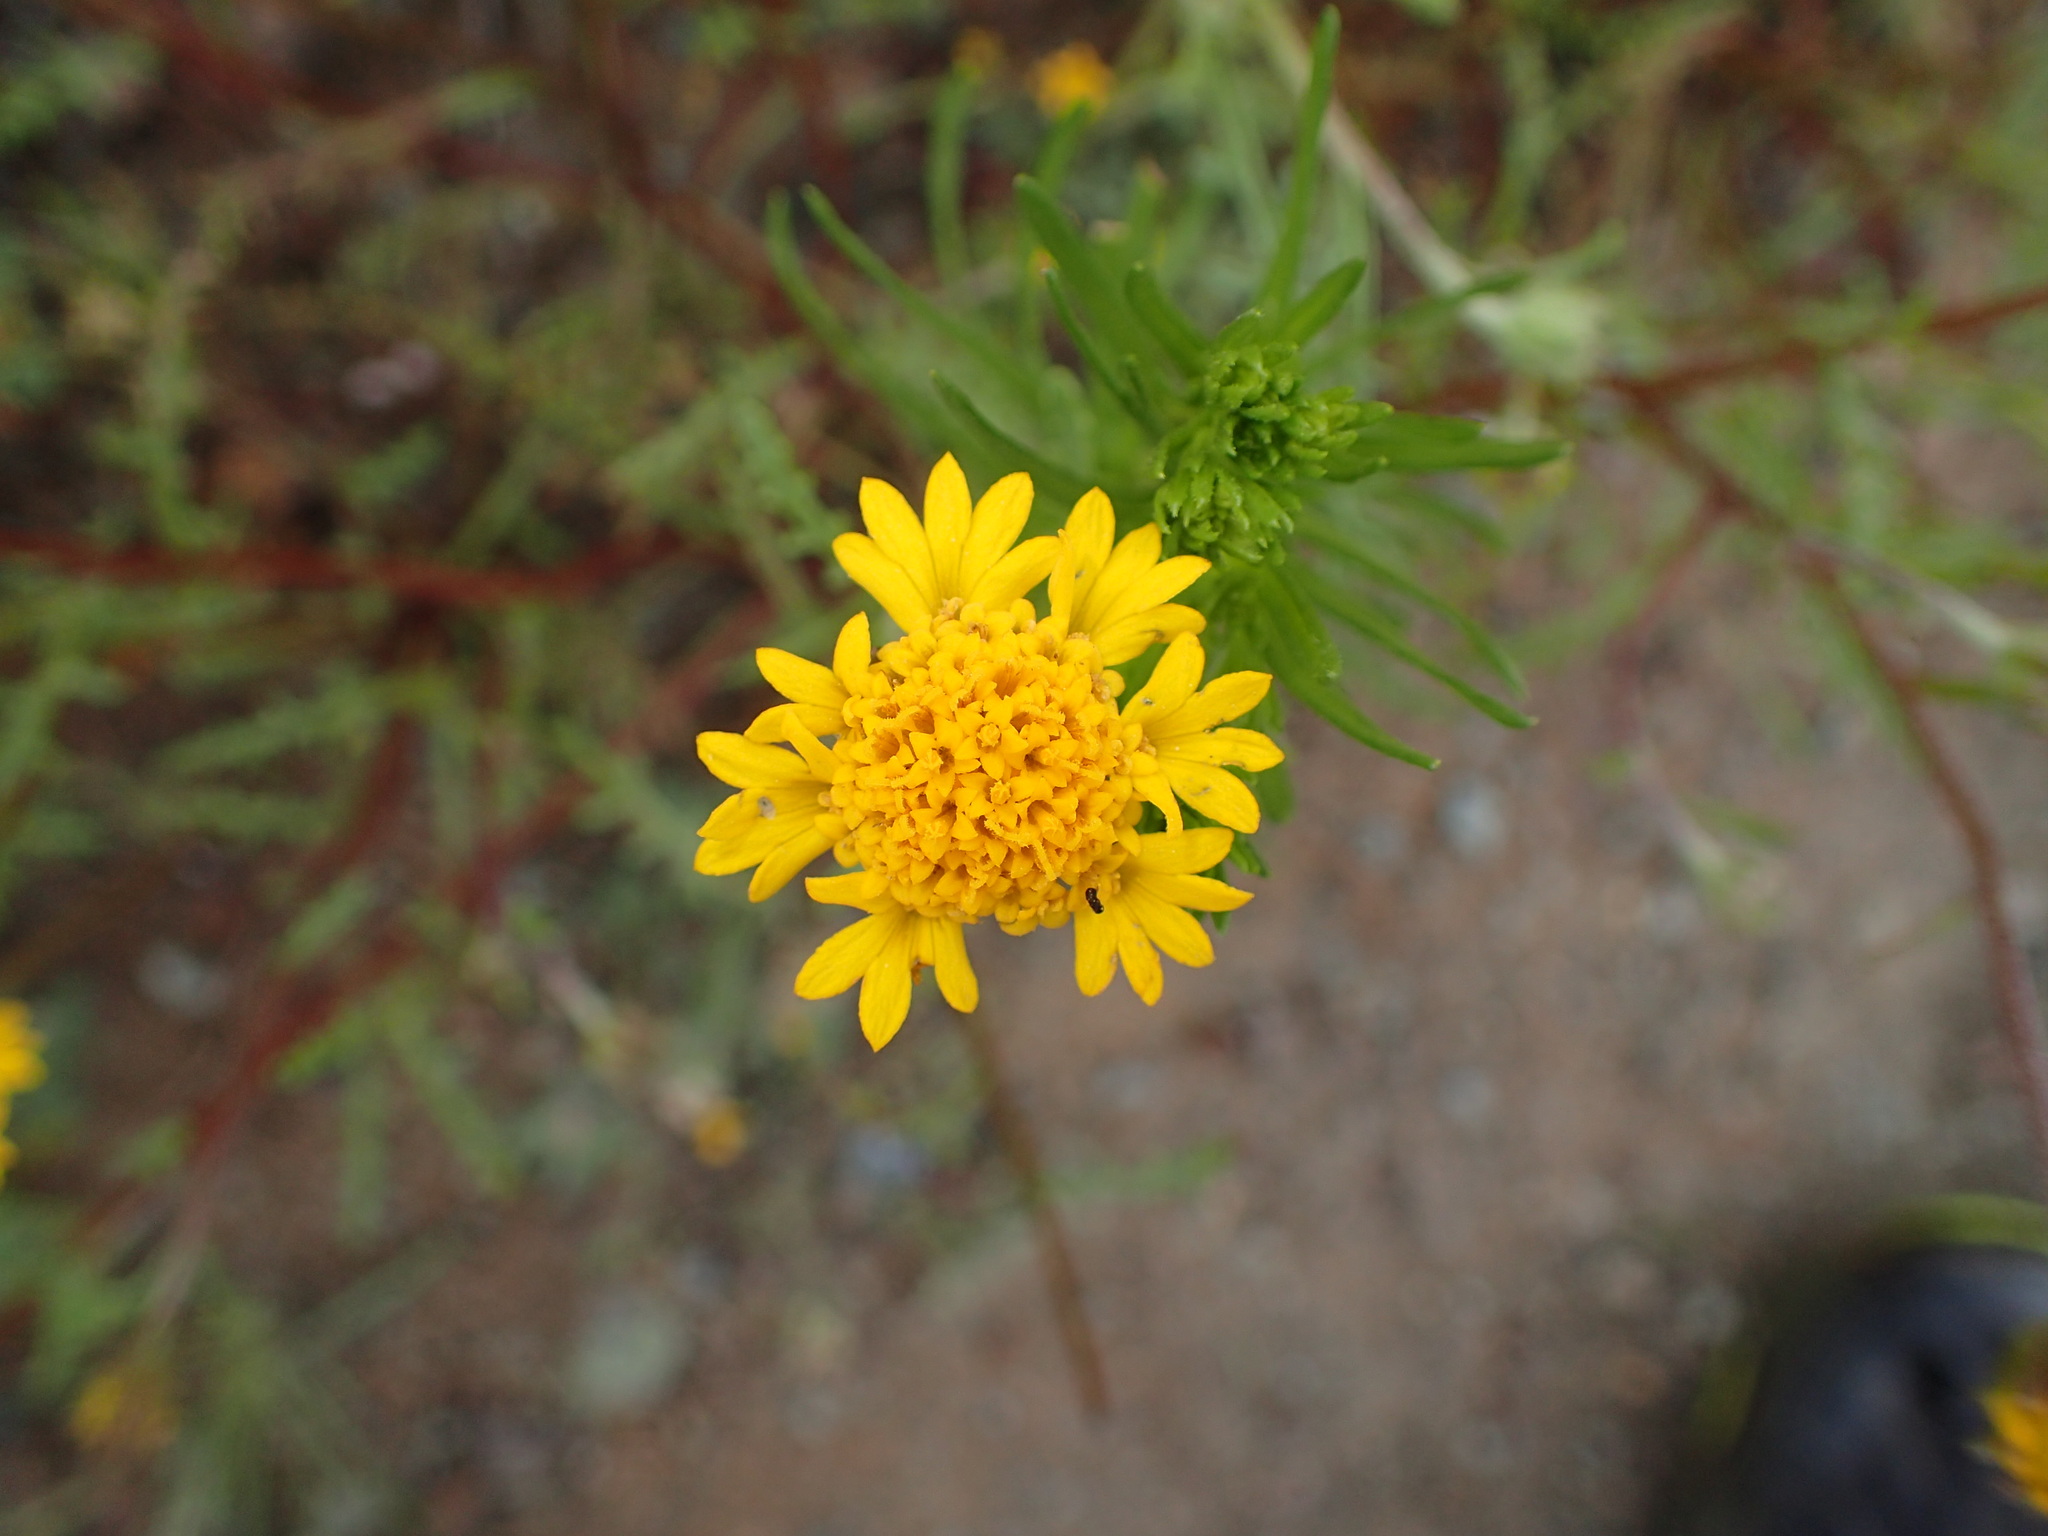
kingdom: Plantae
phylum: Tracheophyta
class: Magnoliopsida
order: Asterales
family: Asteraceae
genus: Chaenactis
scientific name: Chaenactis glabriuscula
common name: Yellow pincushion
